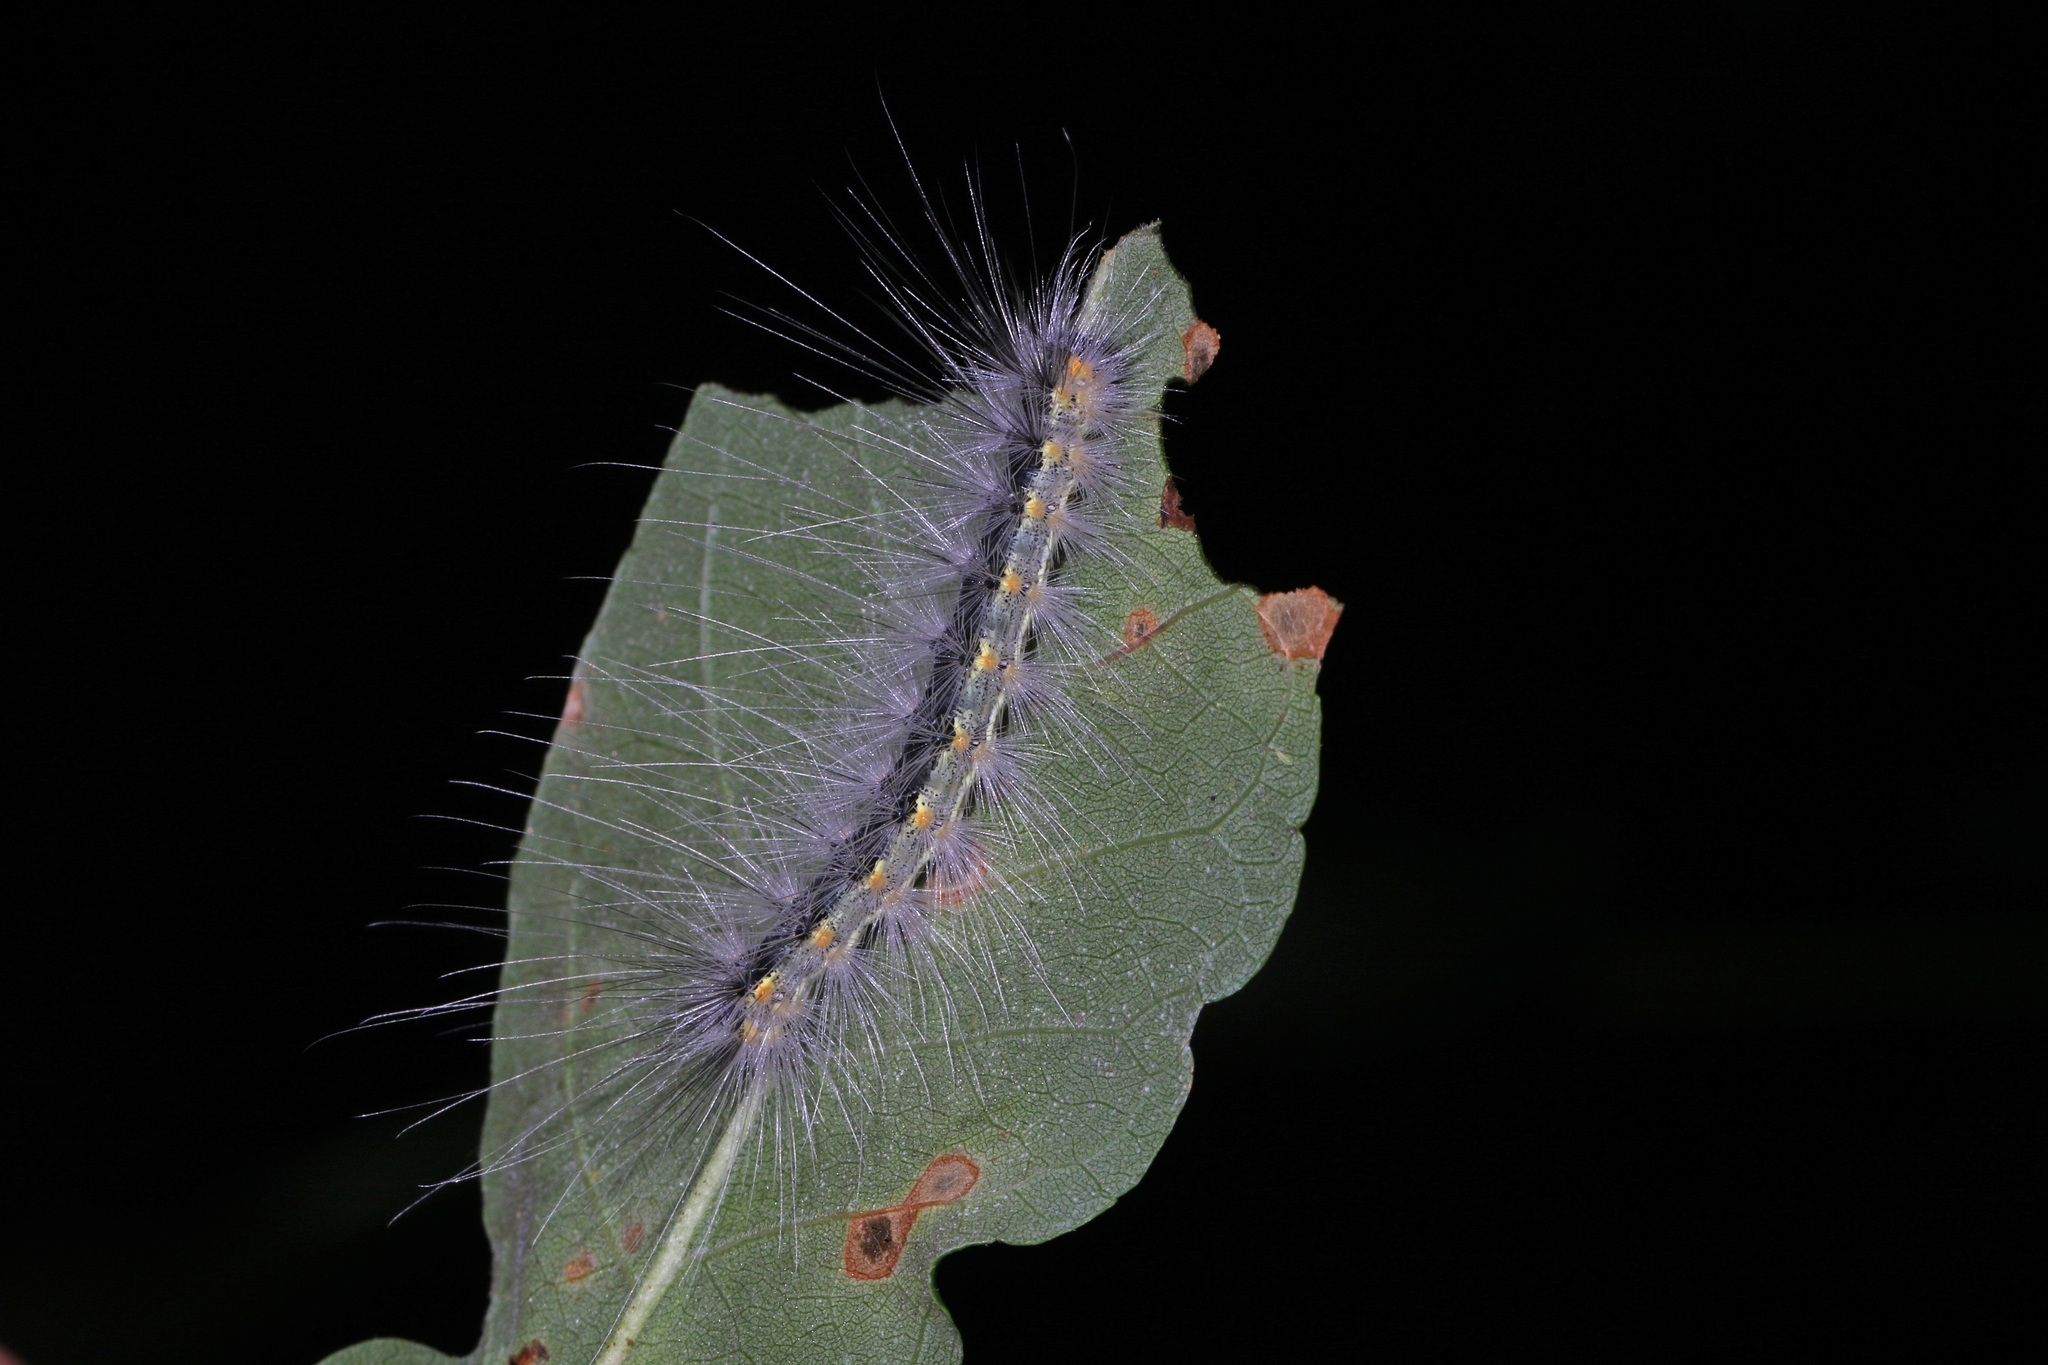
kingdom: Animalia
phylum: Arthropoda
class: Insecta
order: Lepidoptera
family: Erebidae
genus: Hyphantria
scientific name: Hyphantria cunea
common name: American white moth
